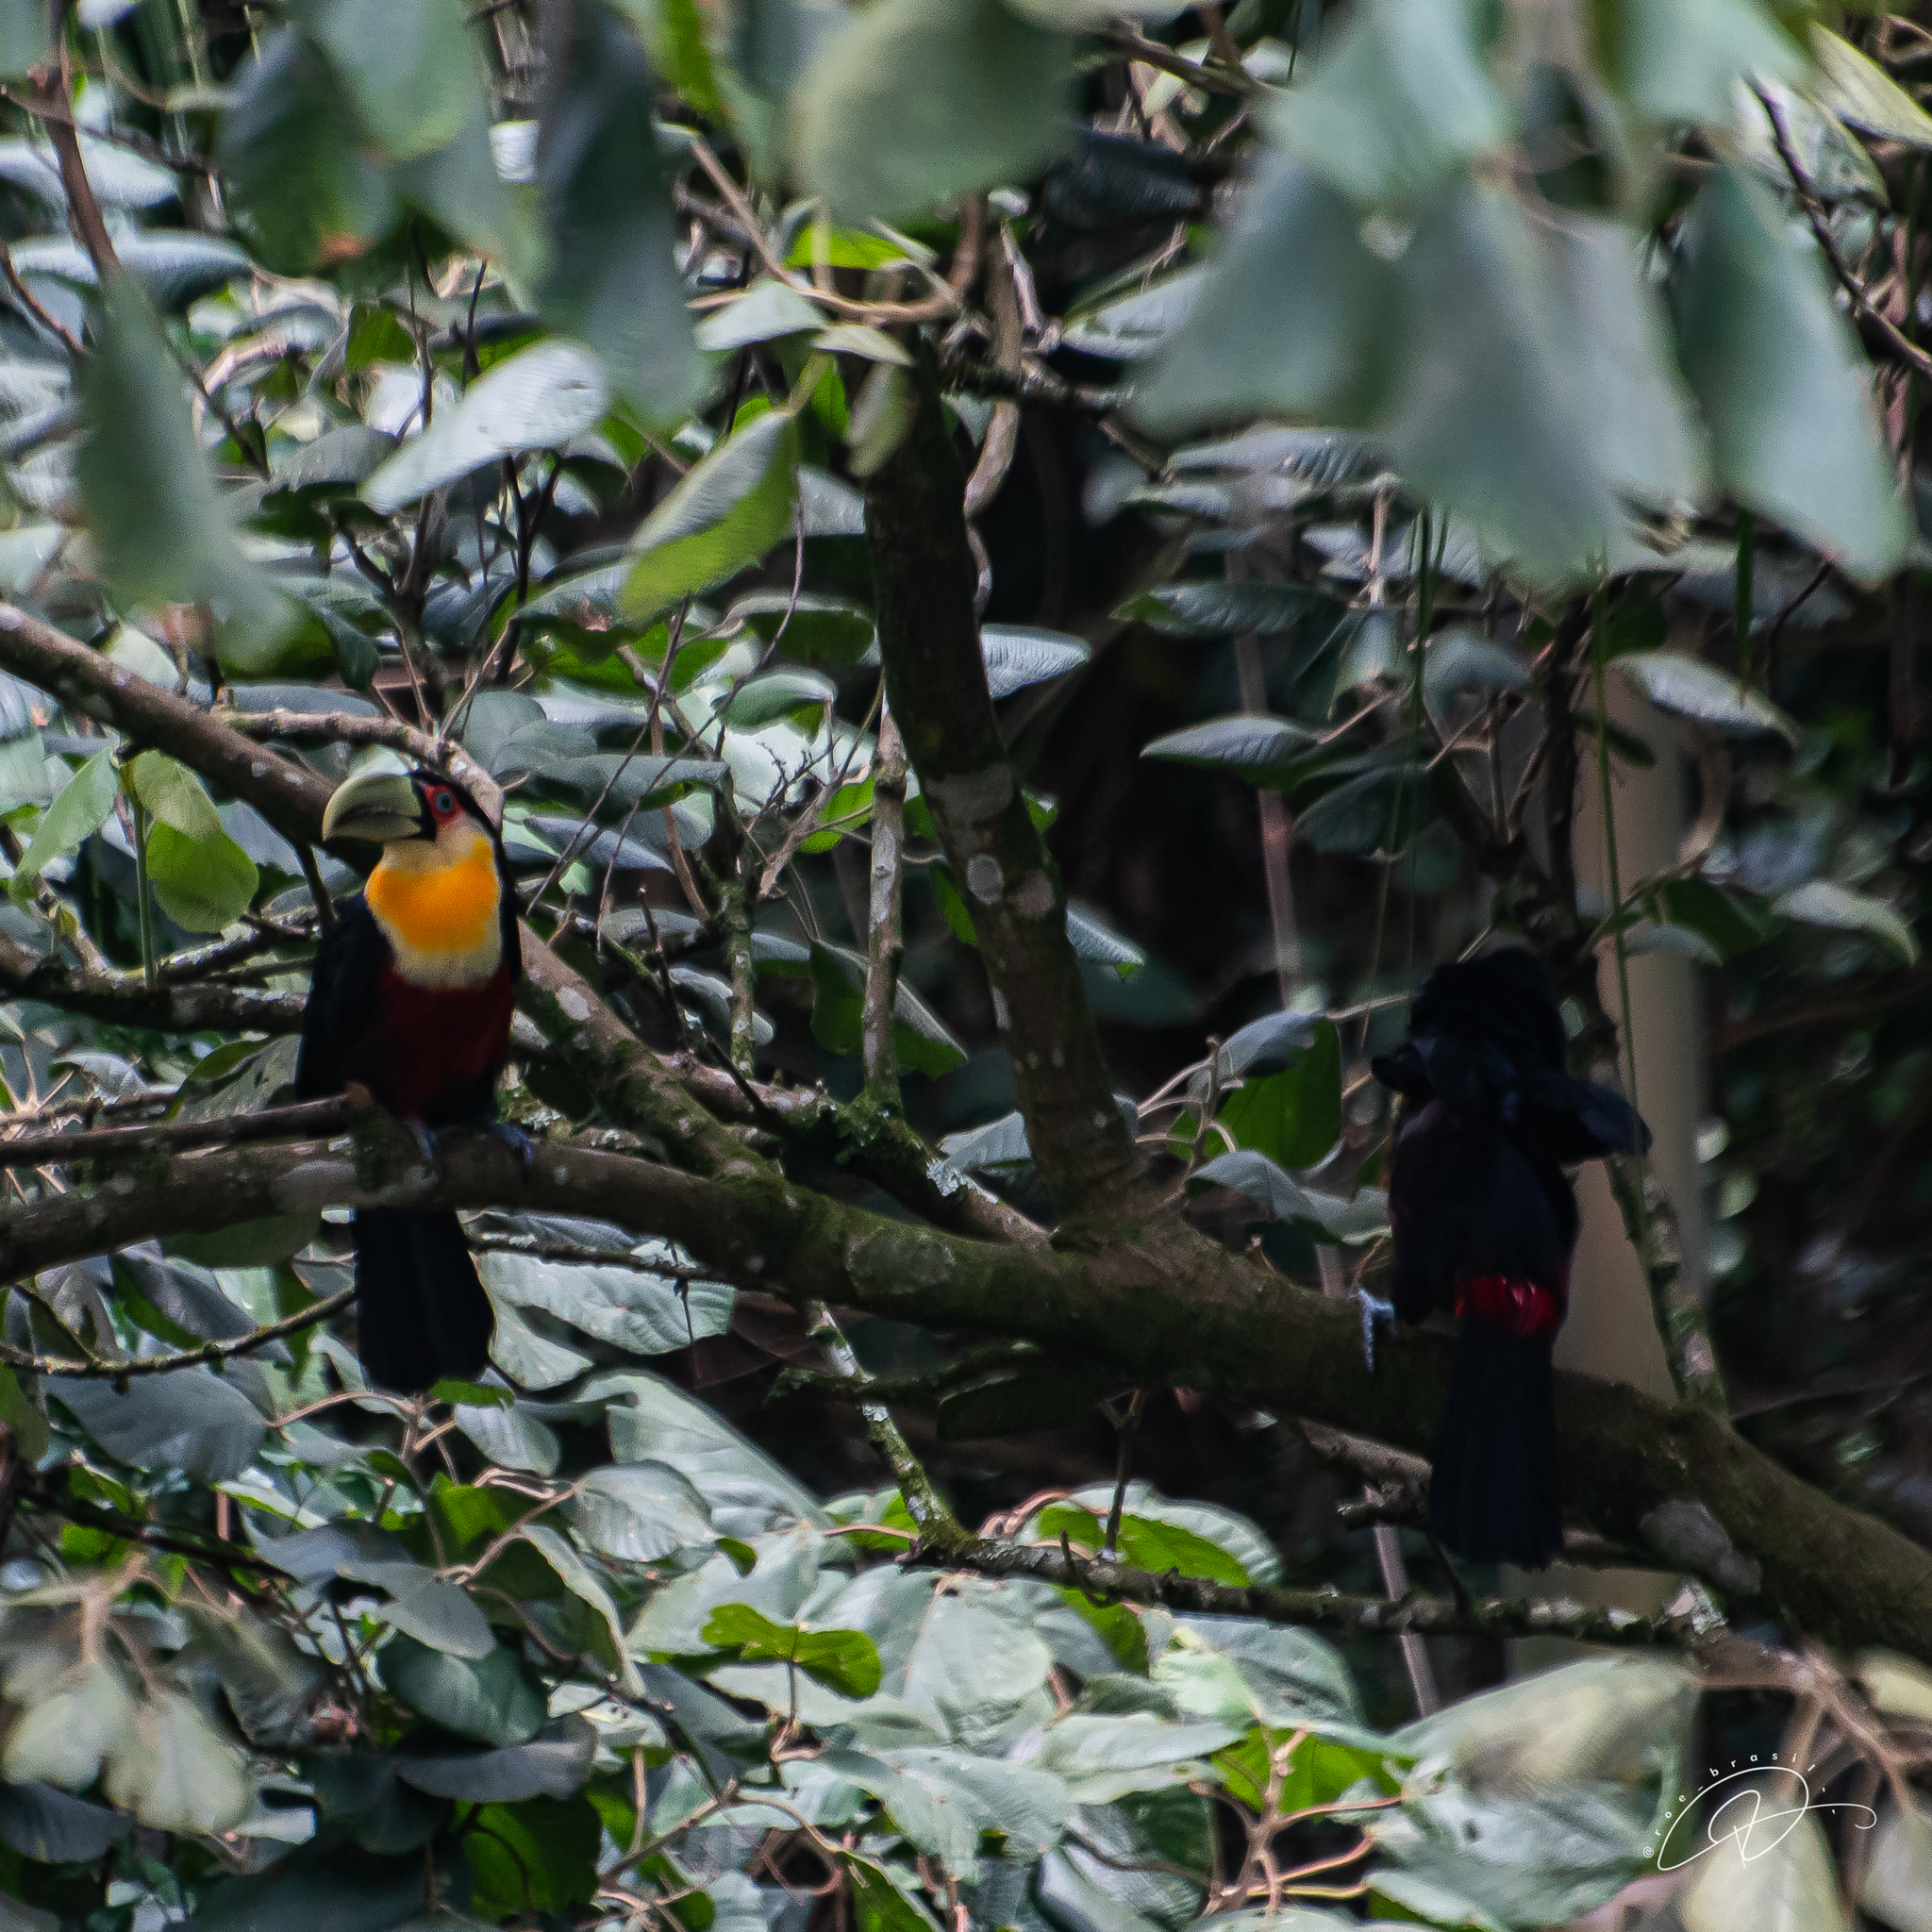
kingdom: Animalia
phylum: Chordata
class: Aves
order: Piciformes
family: Ramphastidae
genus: Ramphastos
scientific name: Ramphastos dicolorus
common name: Green-billed toucan
